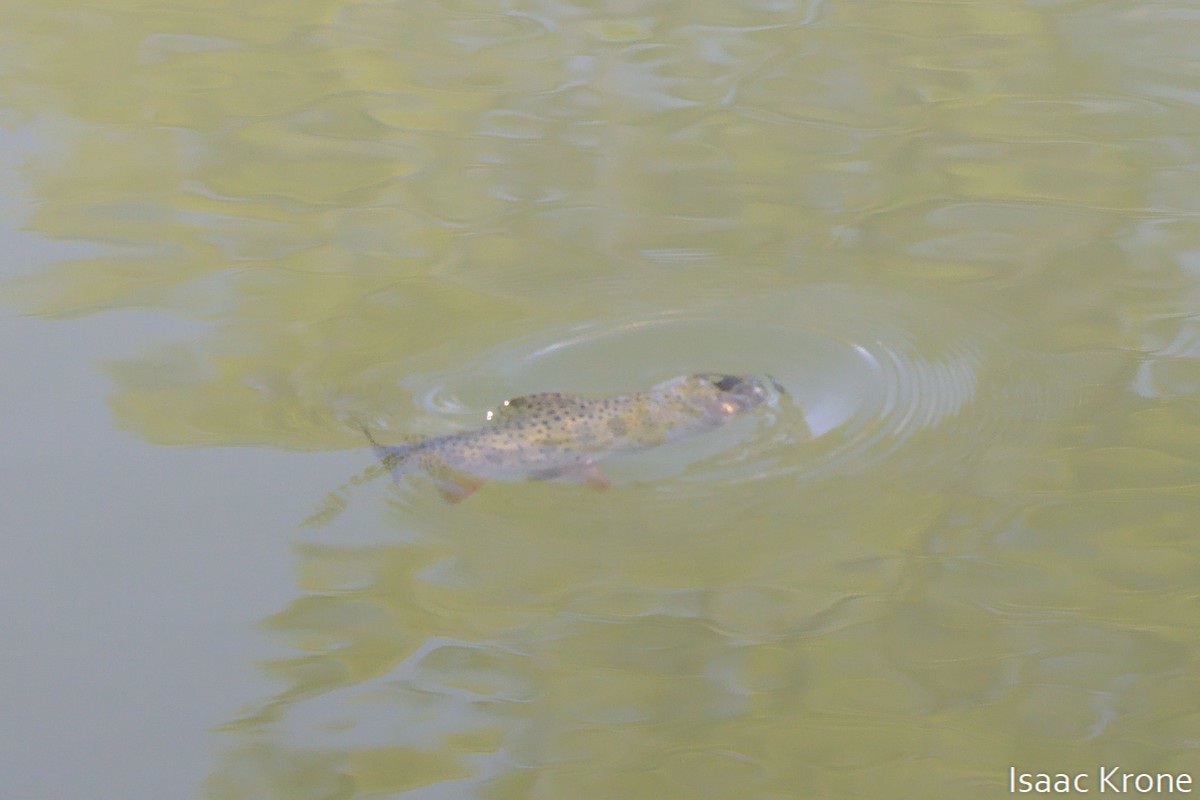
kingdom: Animalia
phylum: Chordata
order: Salmoniformes
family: Salmonidae
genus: Oncorhynchus
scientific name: Oncorhynchus virginalis
